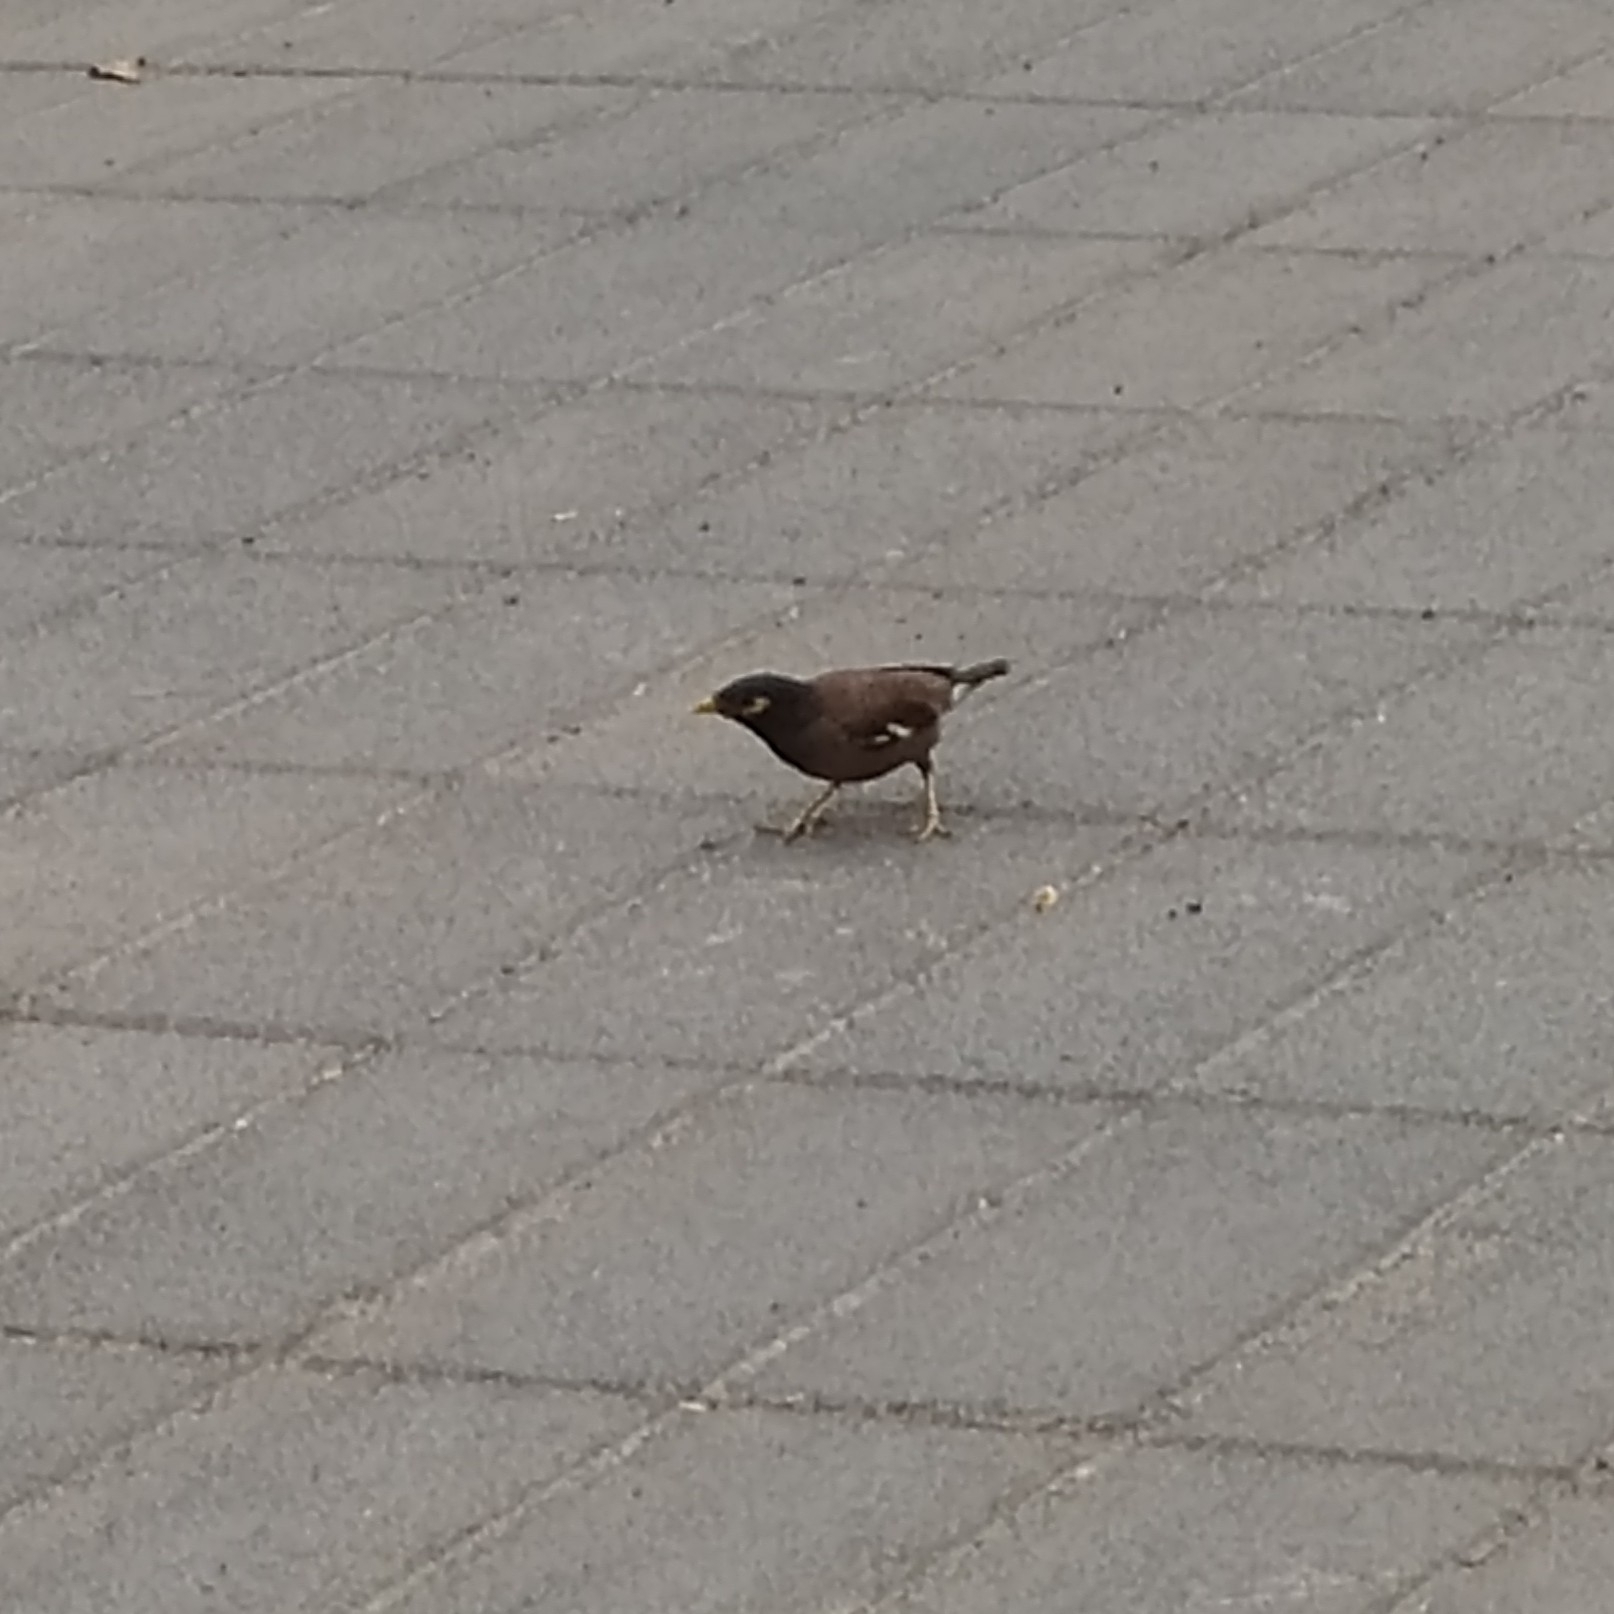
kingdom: Animalia
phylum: Chordata
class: Aves
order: Passeriformes
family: Sturnidae
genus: Acridotheres
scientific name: Acridotheres tristis
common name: Common myna
